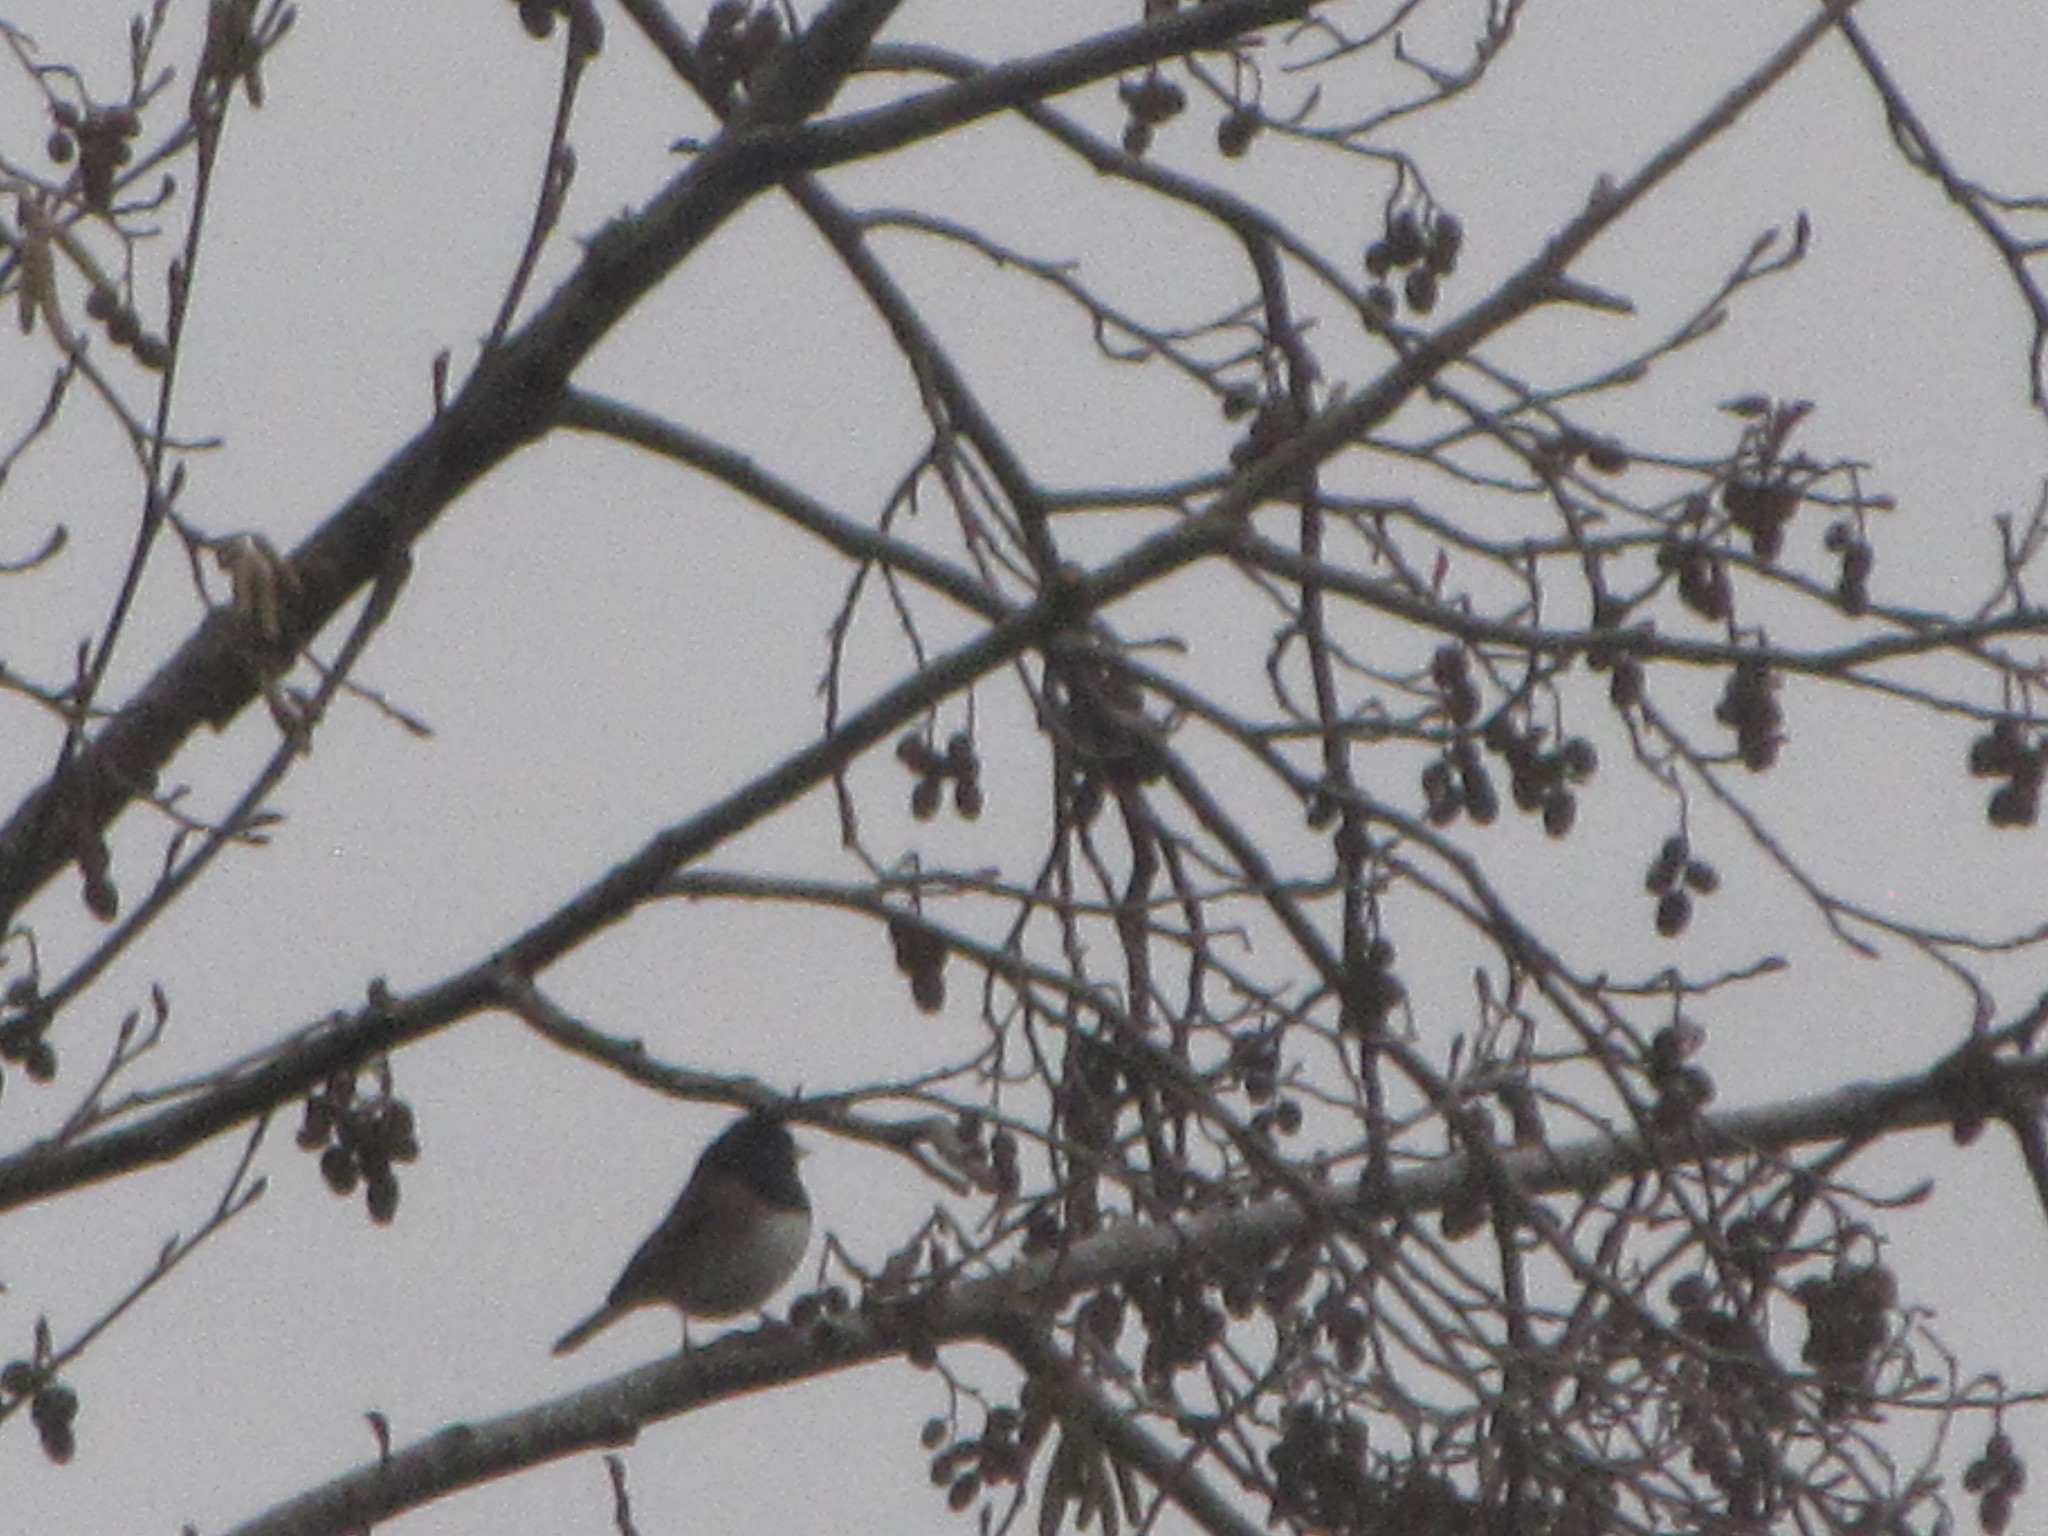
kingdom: Animalia
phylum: Chordata
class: Aves
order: Passeriformes
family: Passerellidae
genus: Junco
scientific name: Junco hyemalis
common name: Dark-eyed junco
